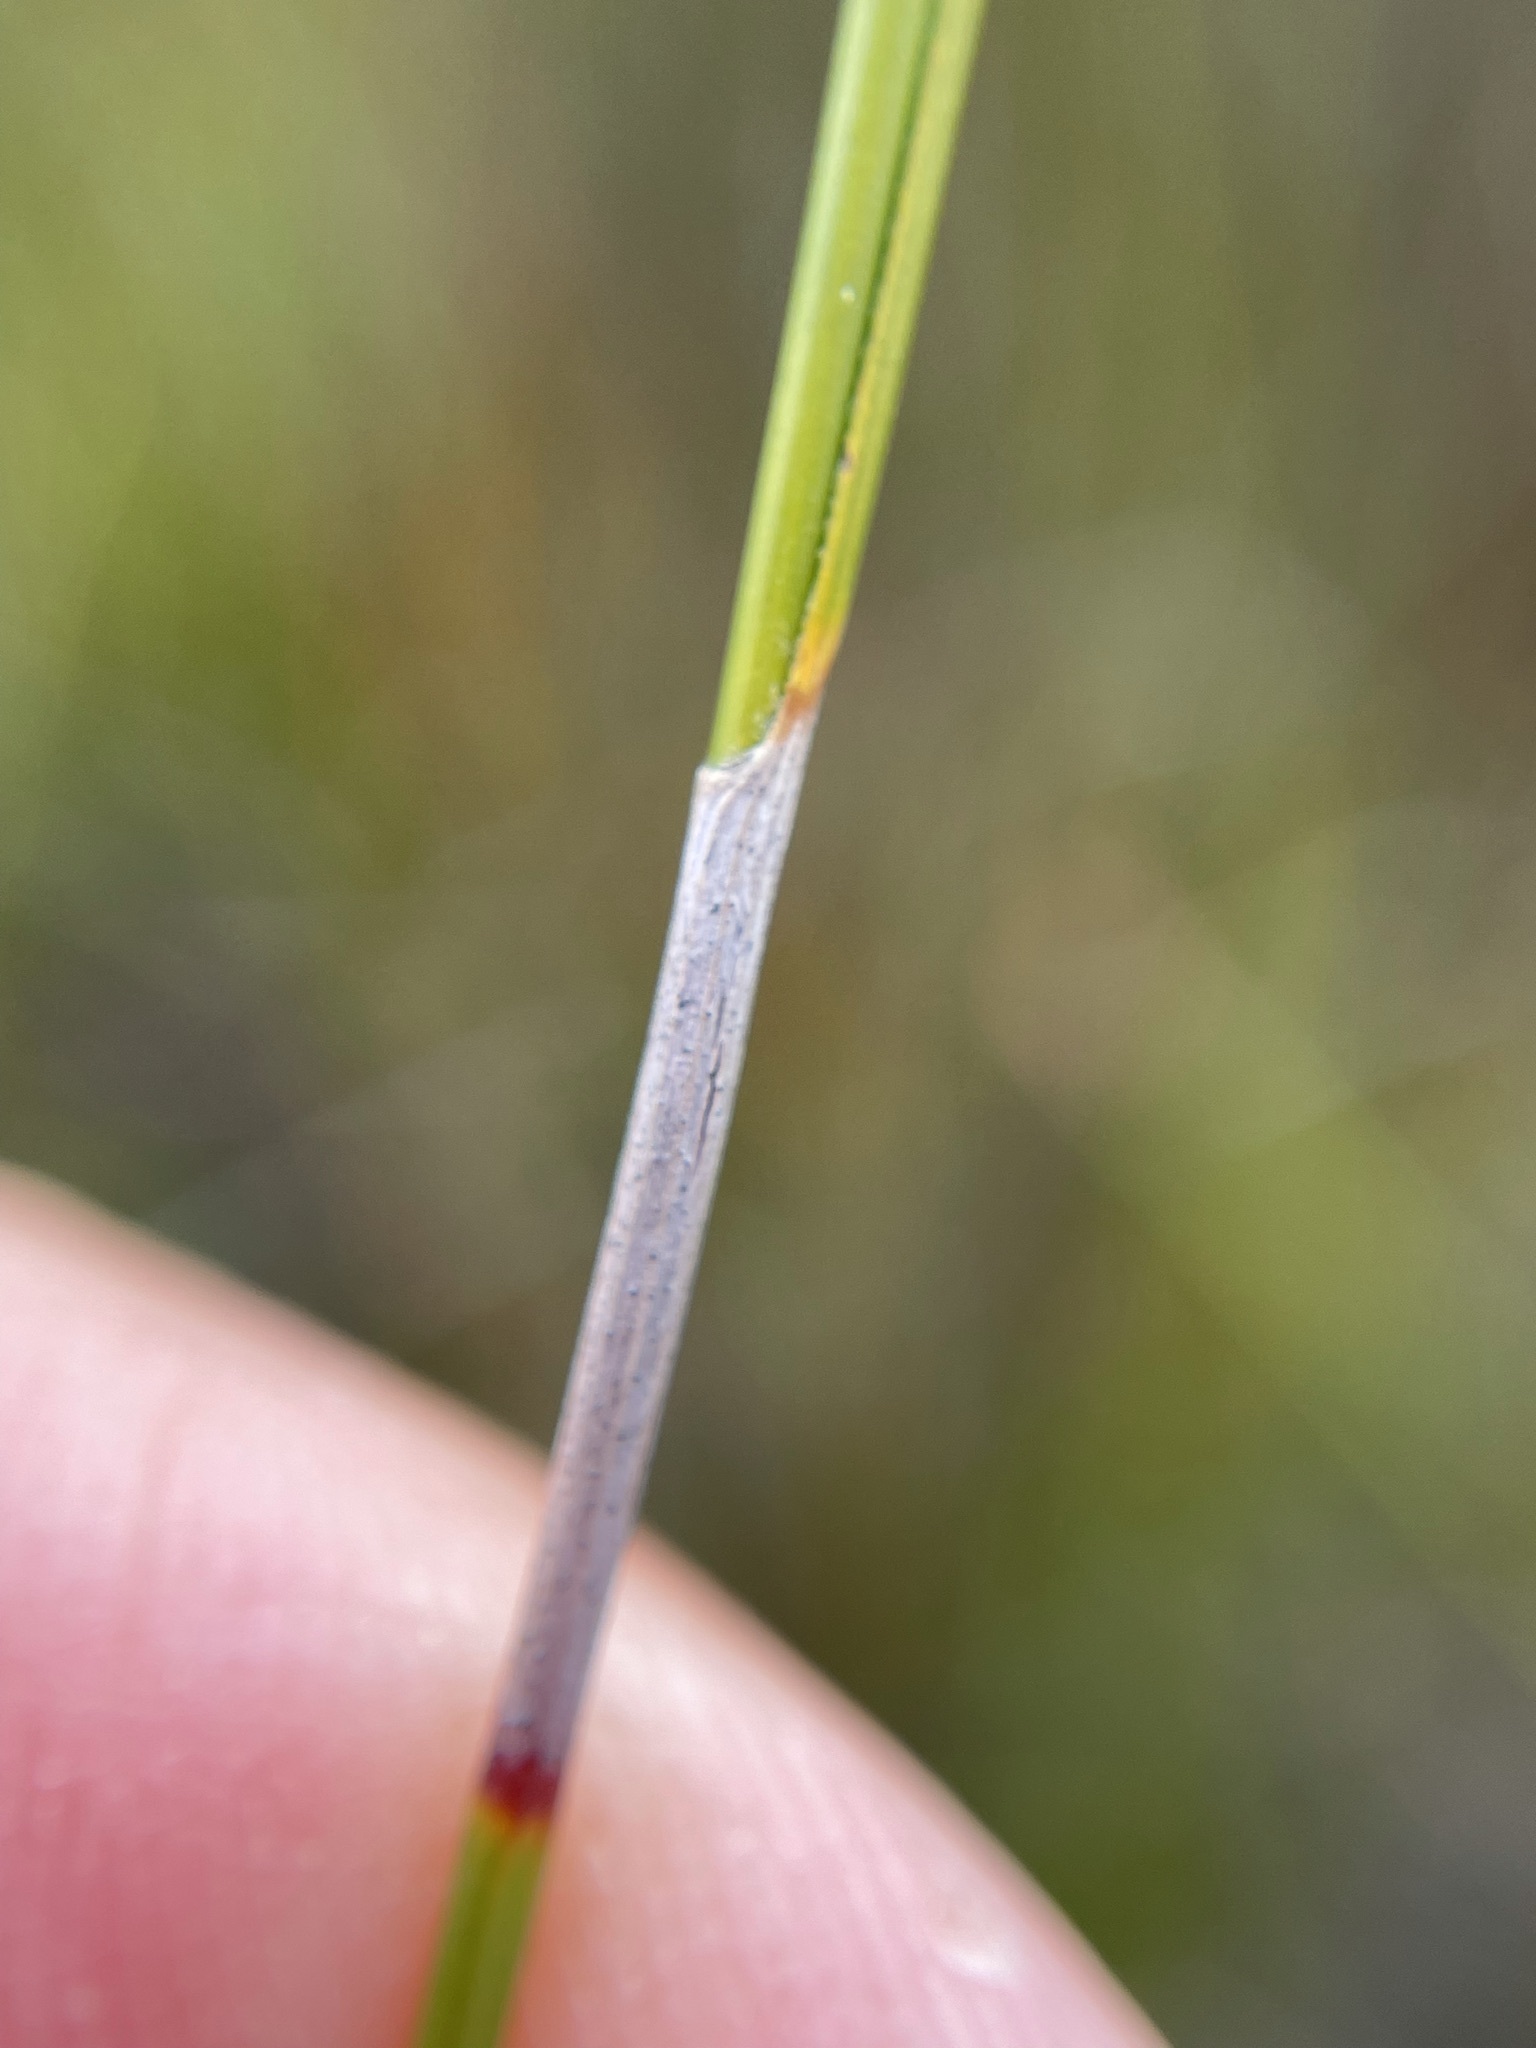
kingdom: Plantae
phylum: Tracheophyta
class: Liliopsida
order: Poales
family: Cyperaceae
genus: Tetraria
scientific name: Tetraria fimbriolata
